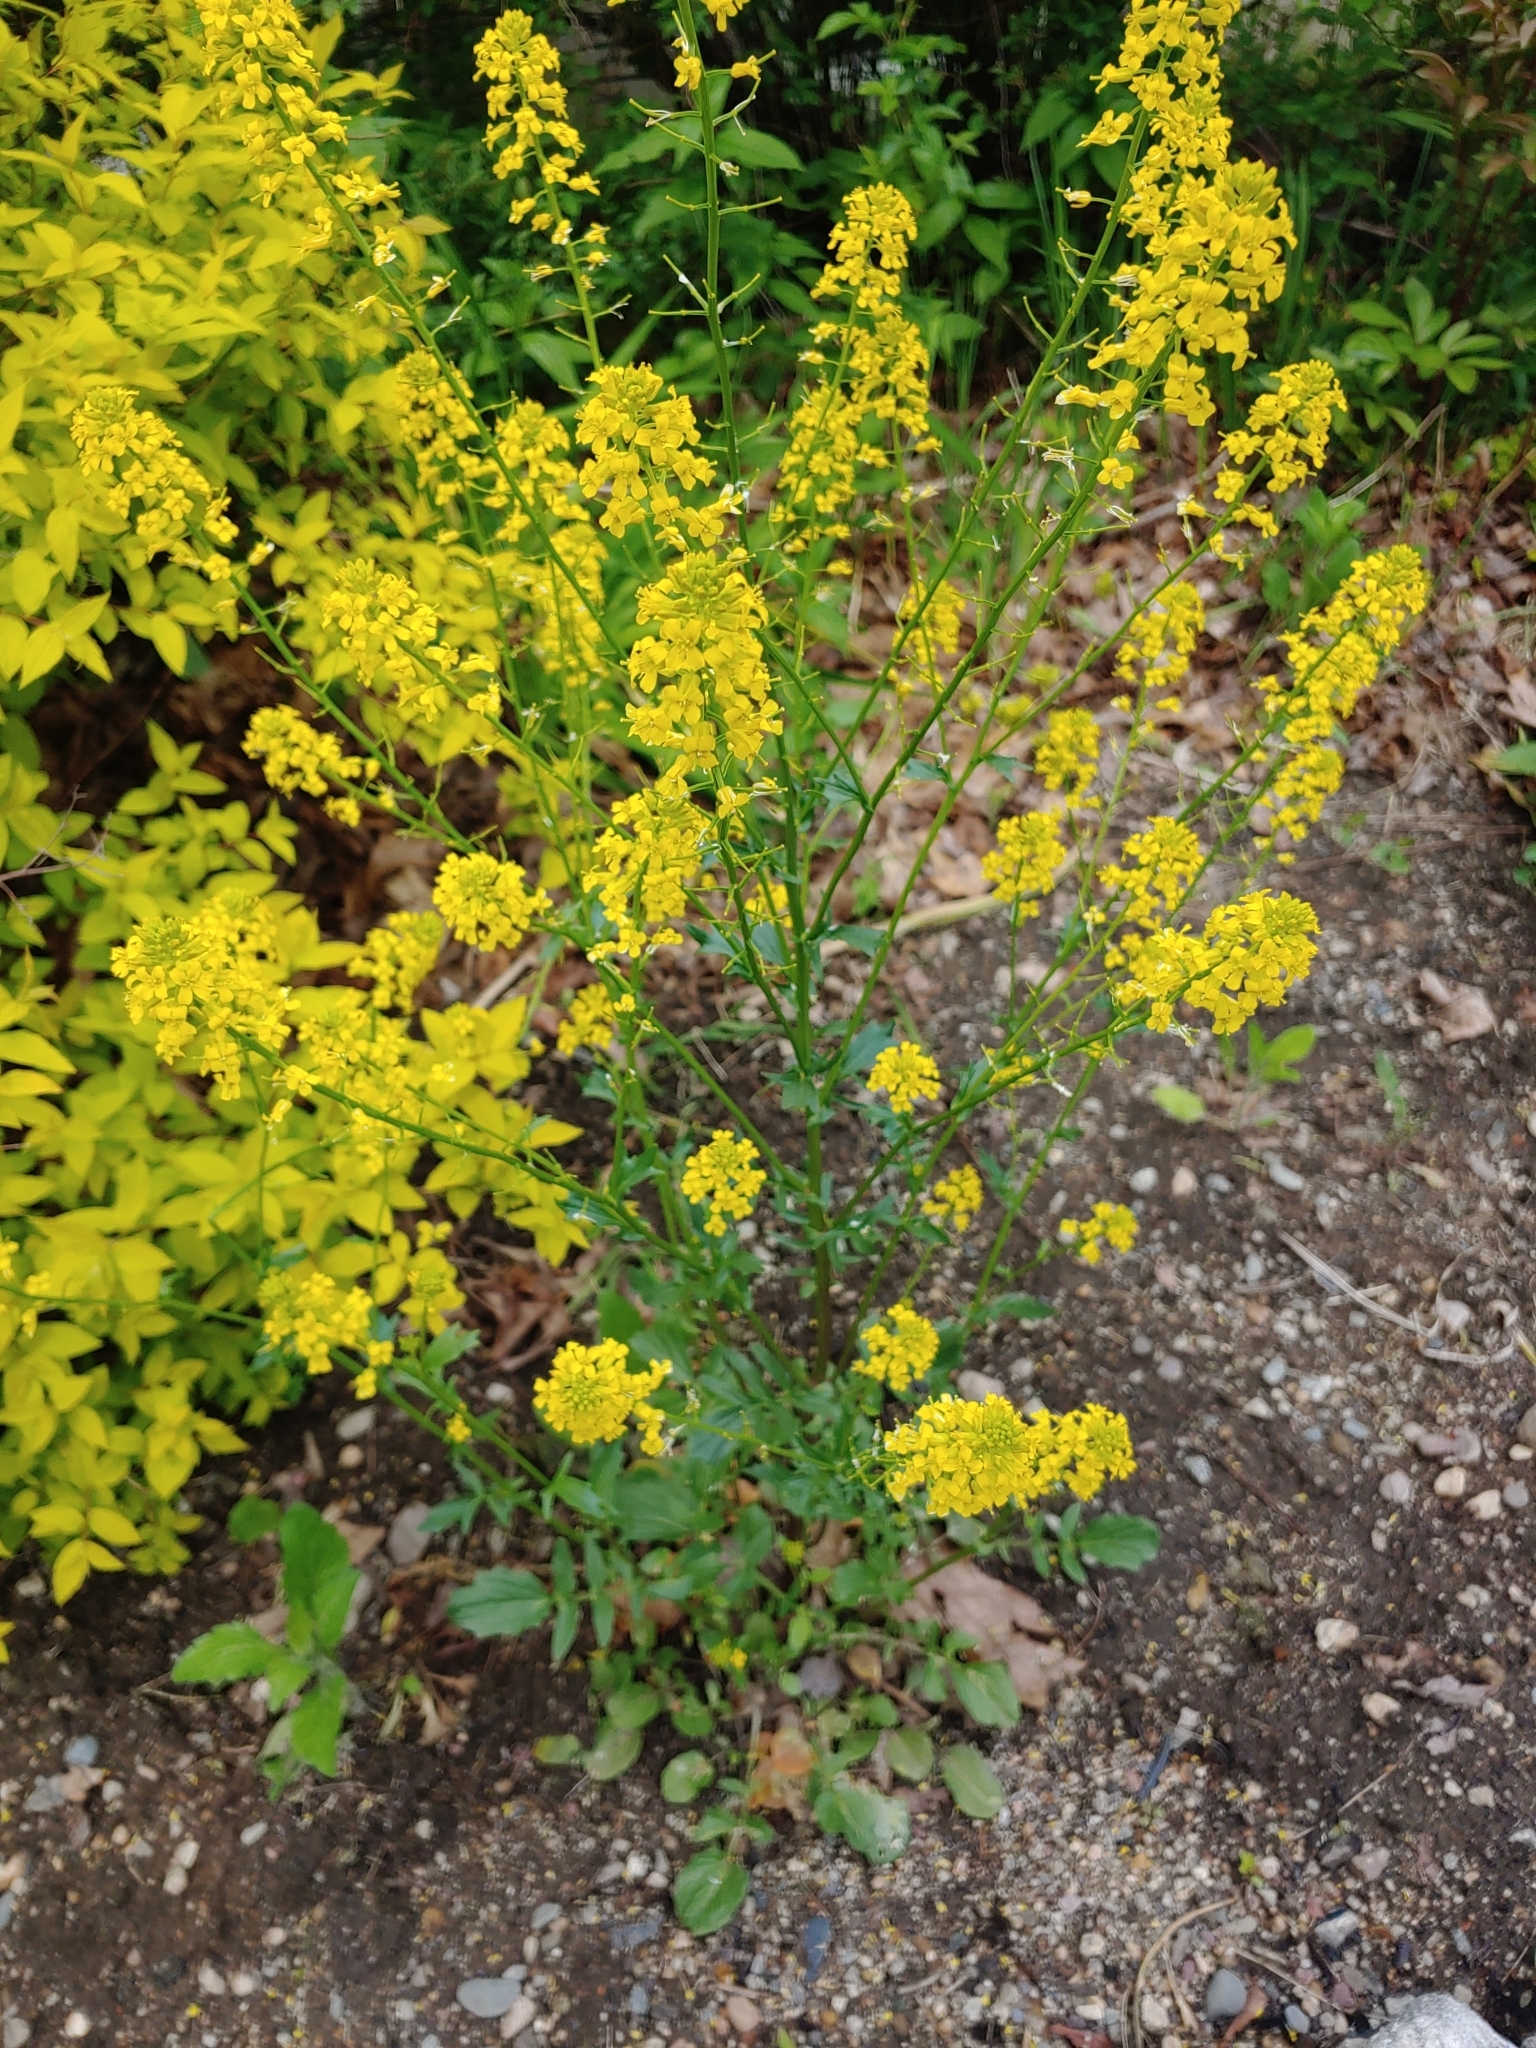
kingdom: Plantae
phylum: Tracheophyta
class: Magnoliopsida
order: Brassicales
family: Brassicaceae
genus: Barbarea
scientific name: Barbarea vulgaris
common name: Cressy-greens
